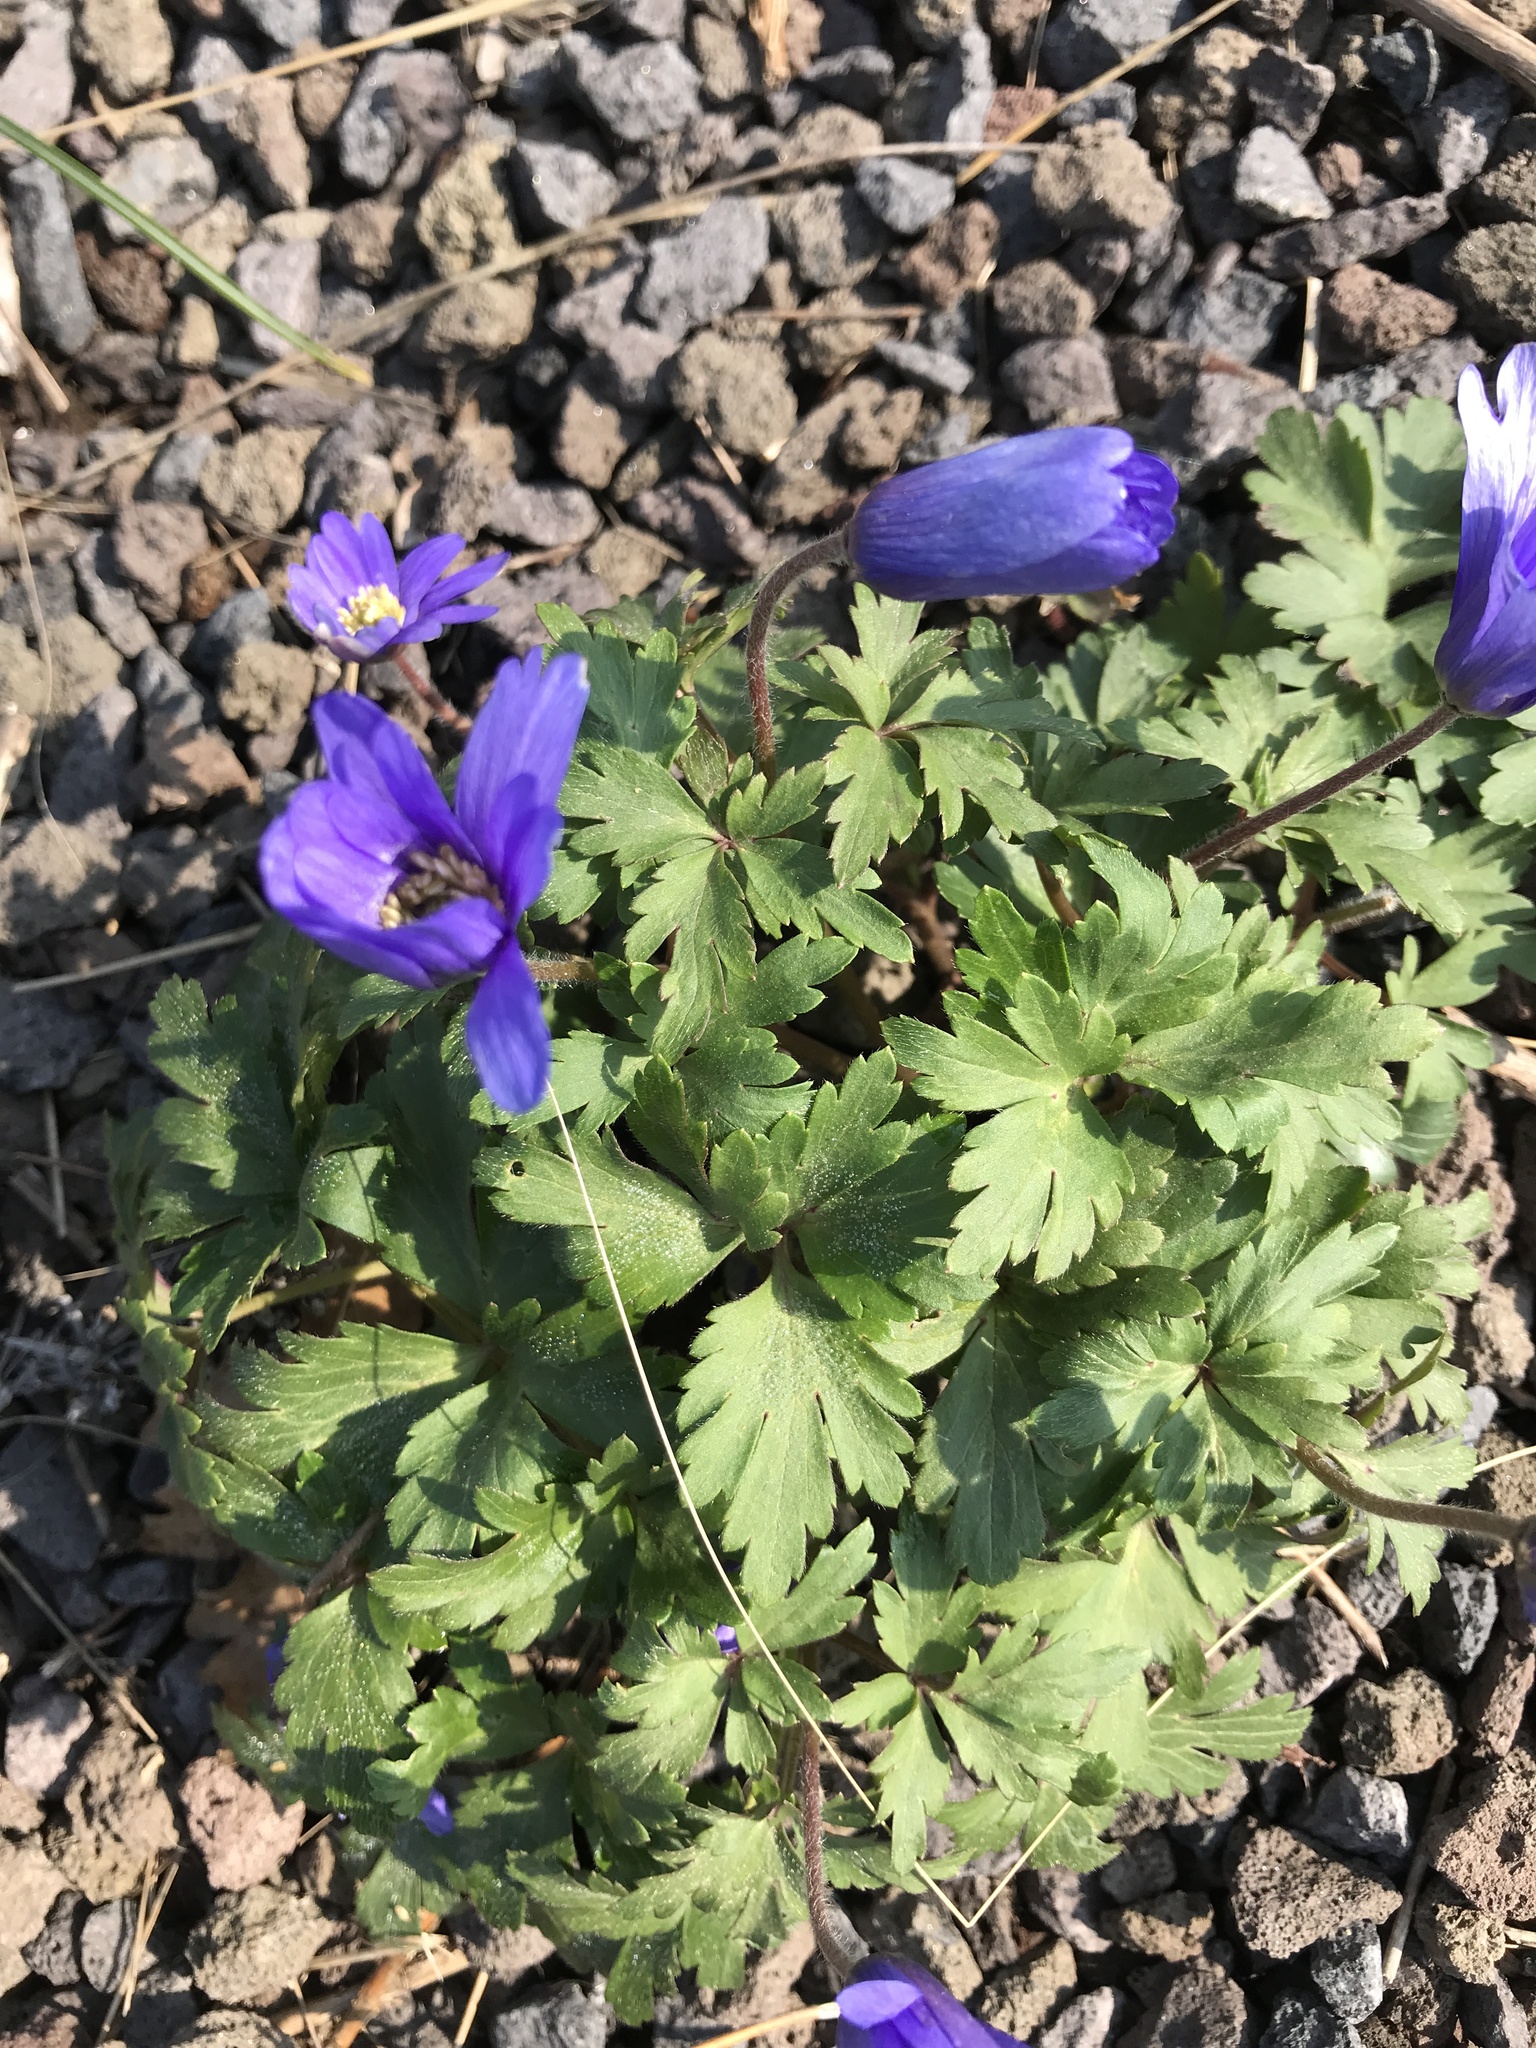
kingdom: Plantae
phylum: Tracheophyta
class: Magnoliopsida
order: Ranunculales
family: Ranunculaceae
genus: Anemone
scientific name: Anemone blanda
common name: Balkan anemone
